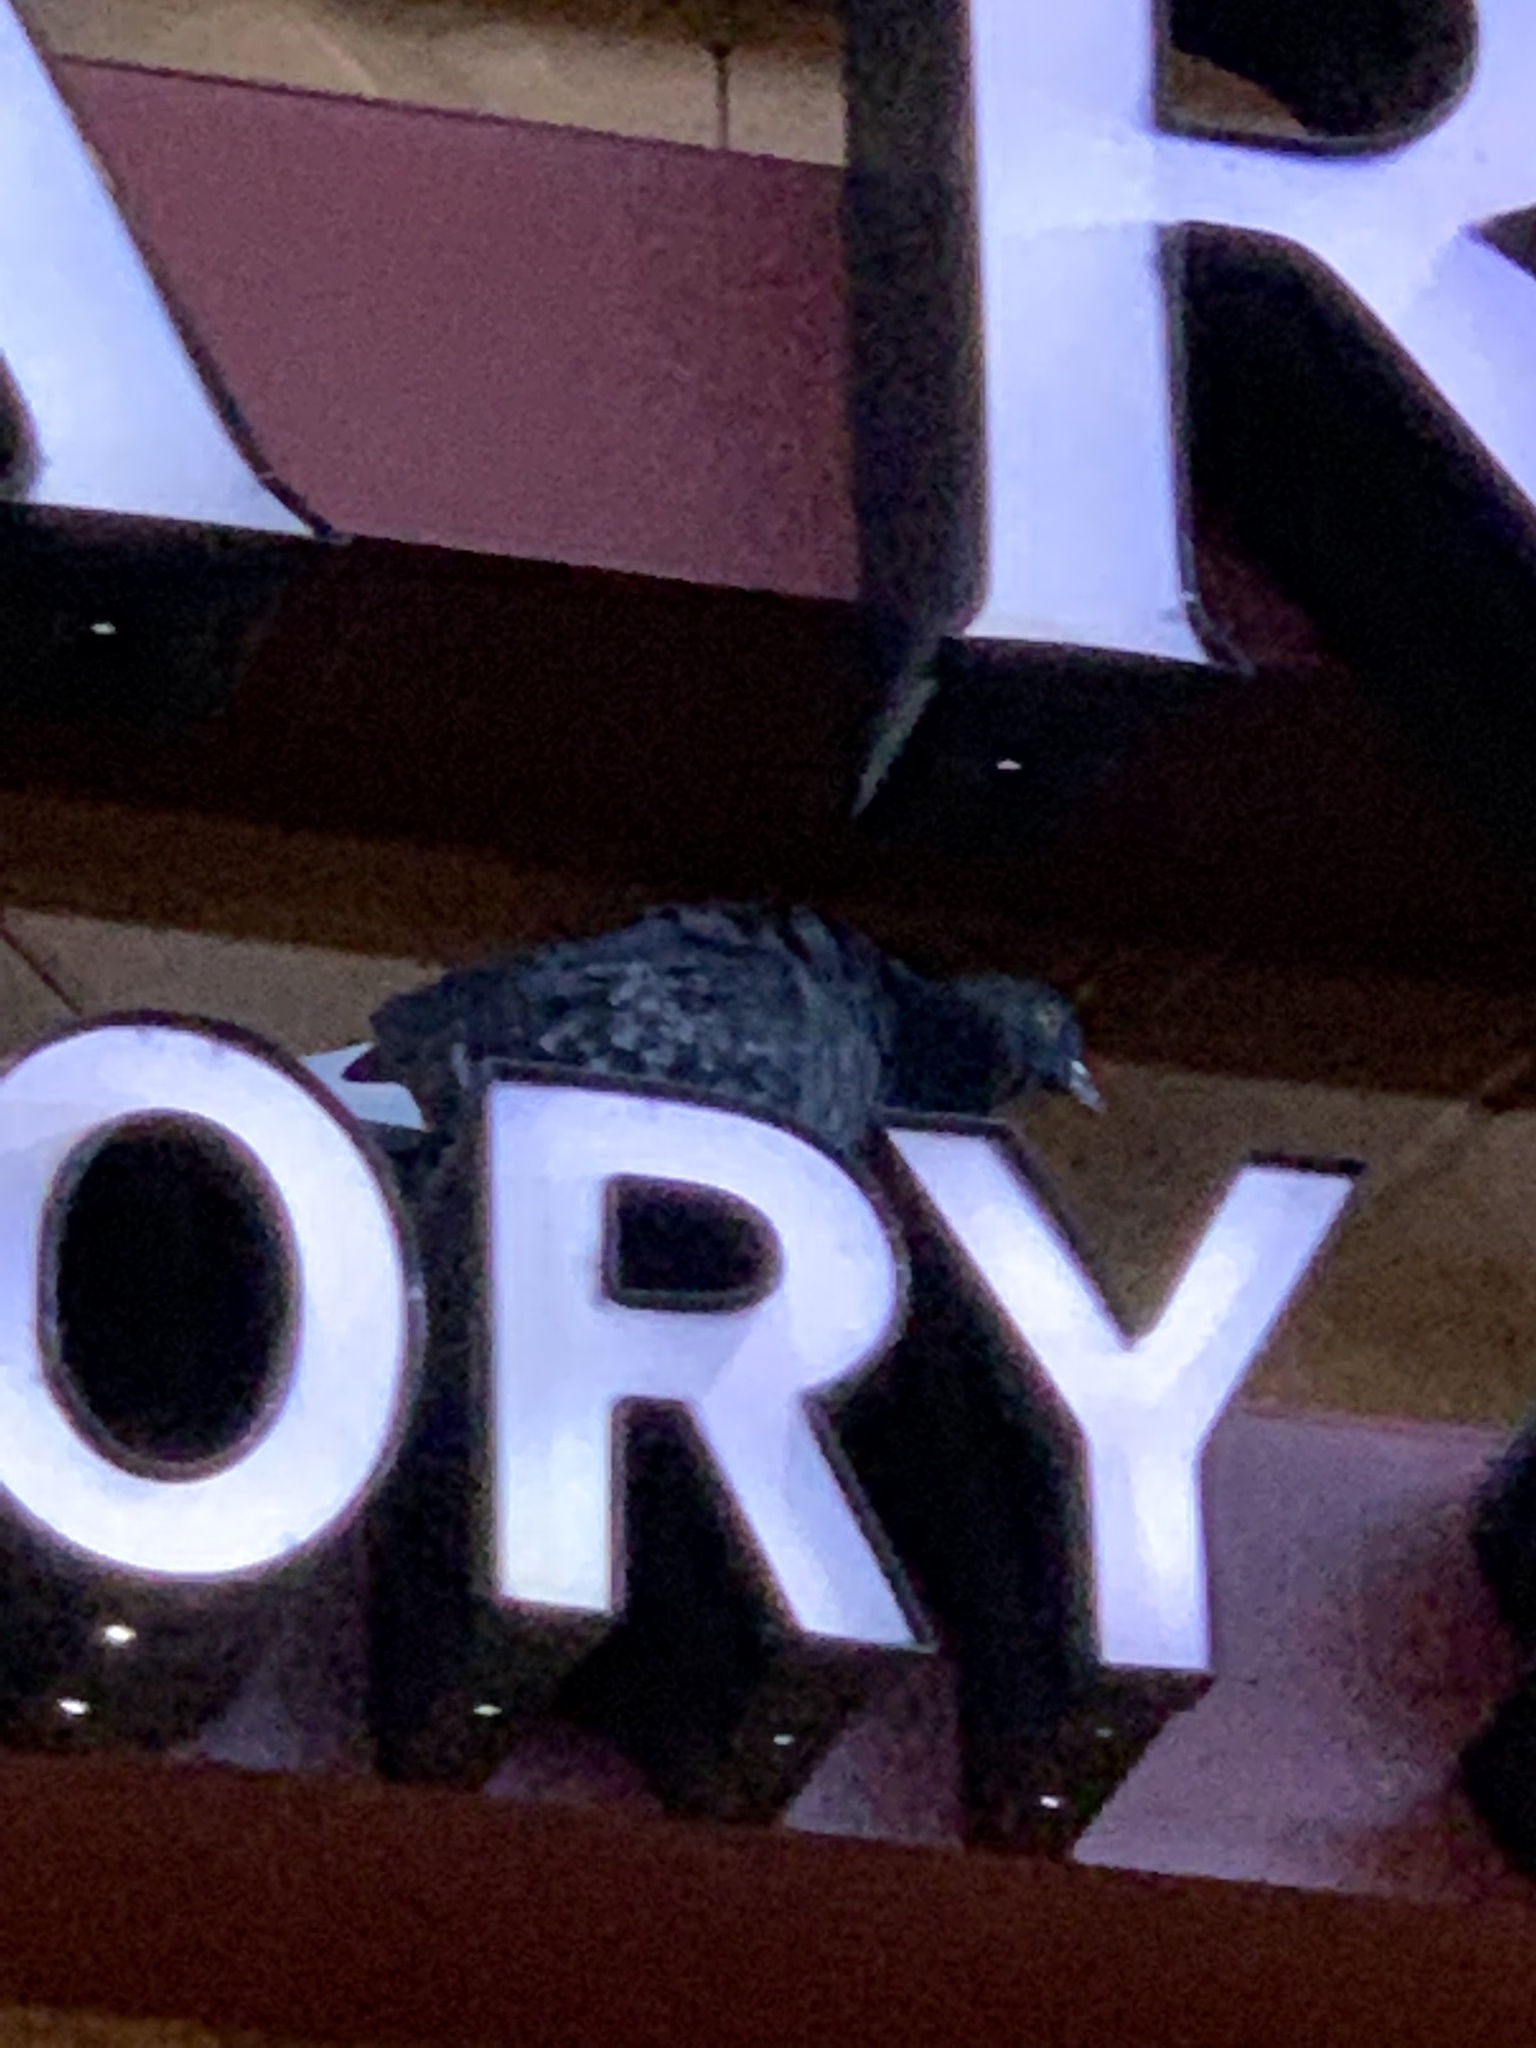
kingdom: Animalia
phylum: Chordata
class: Aves
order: Columbiformes
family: Columbidae
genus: Columba
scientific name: Columba livia
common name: Rock pigeon
